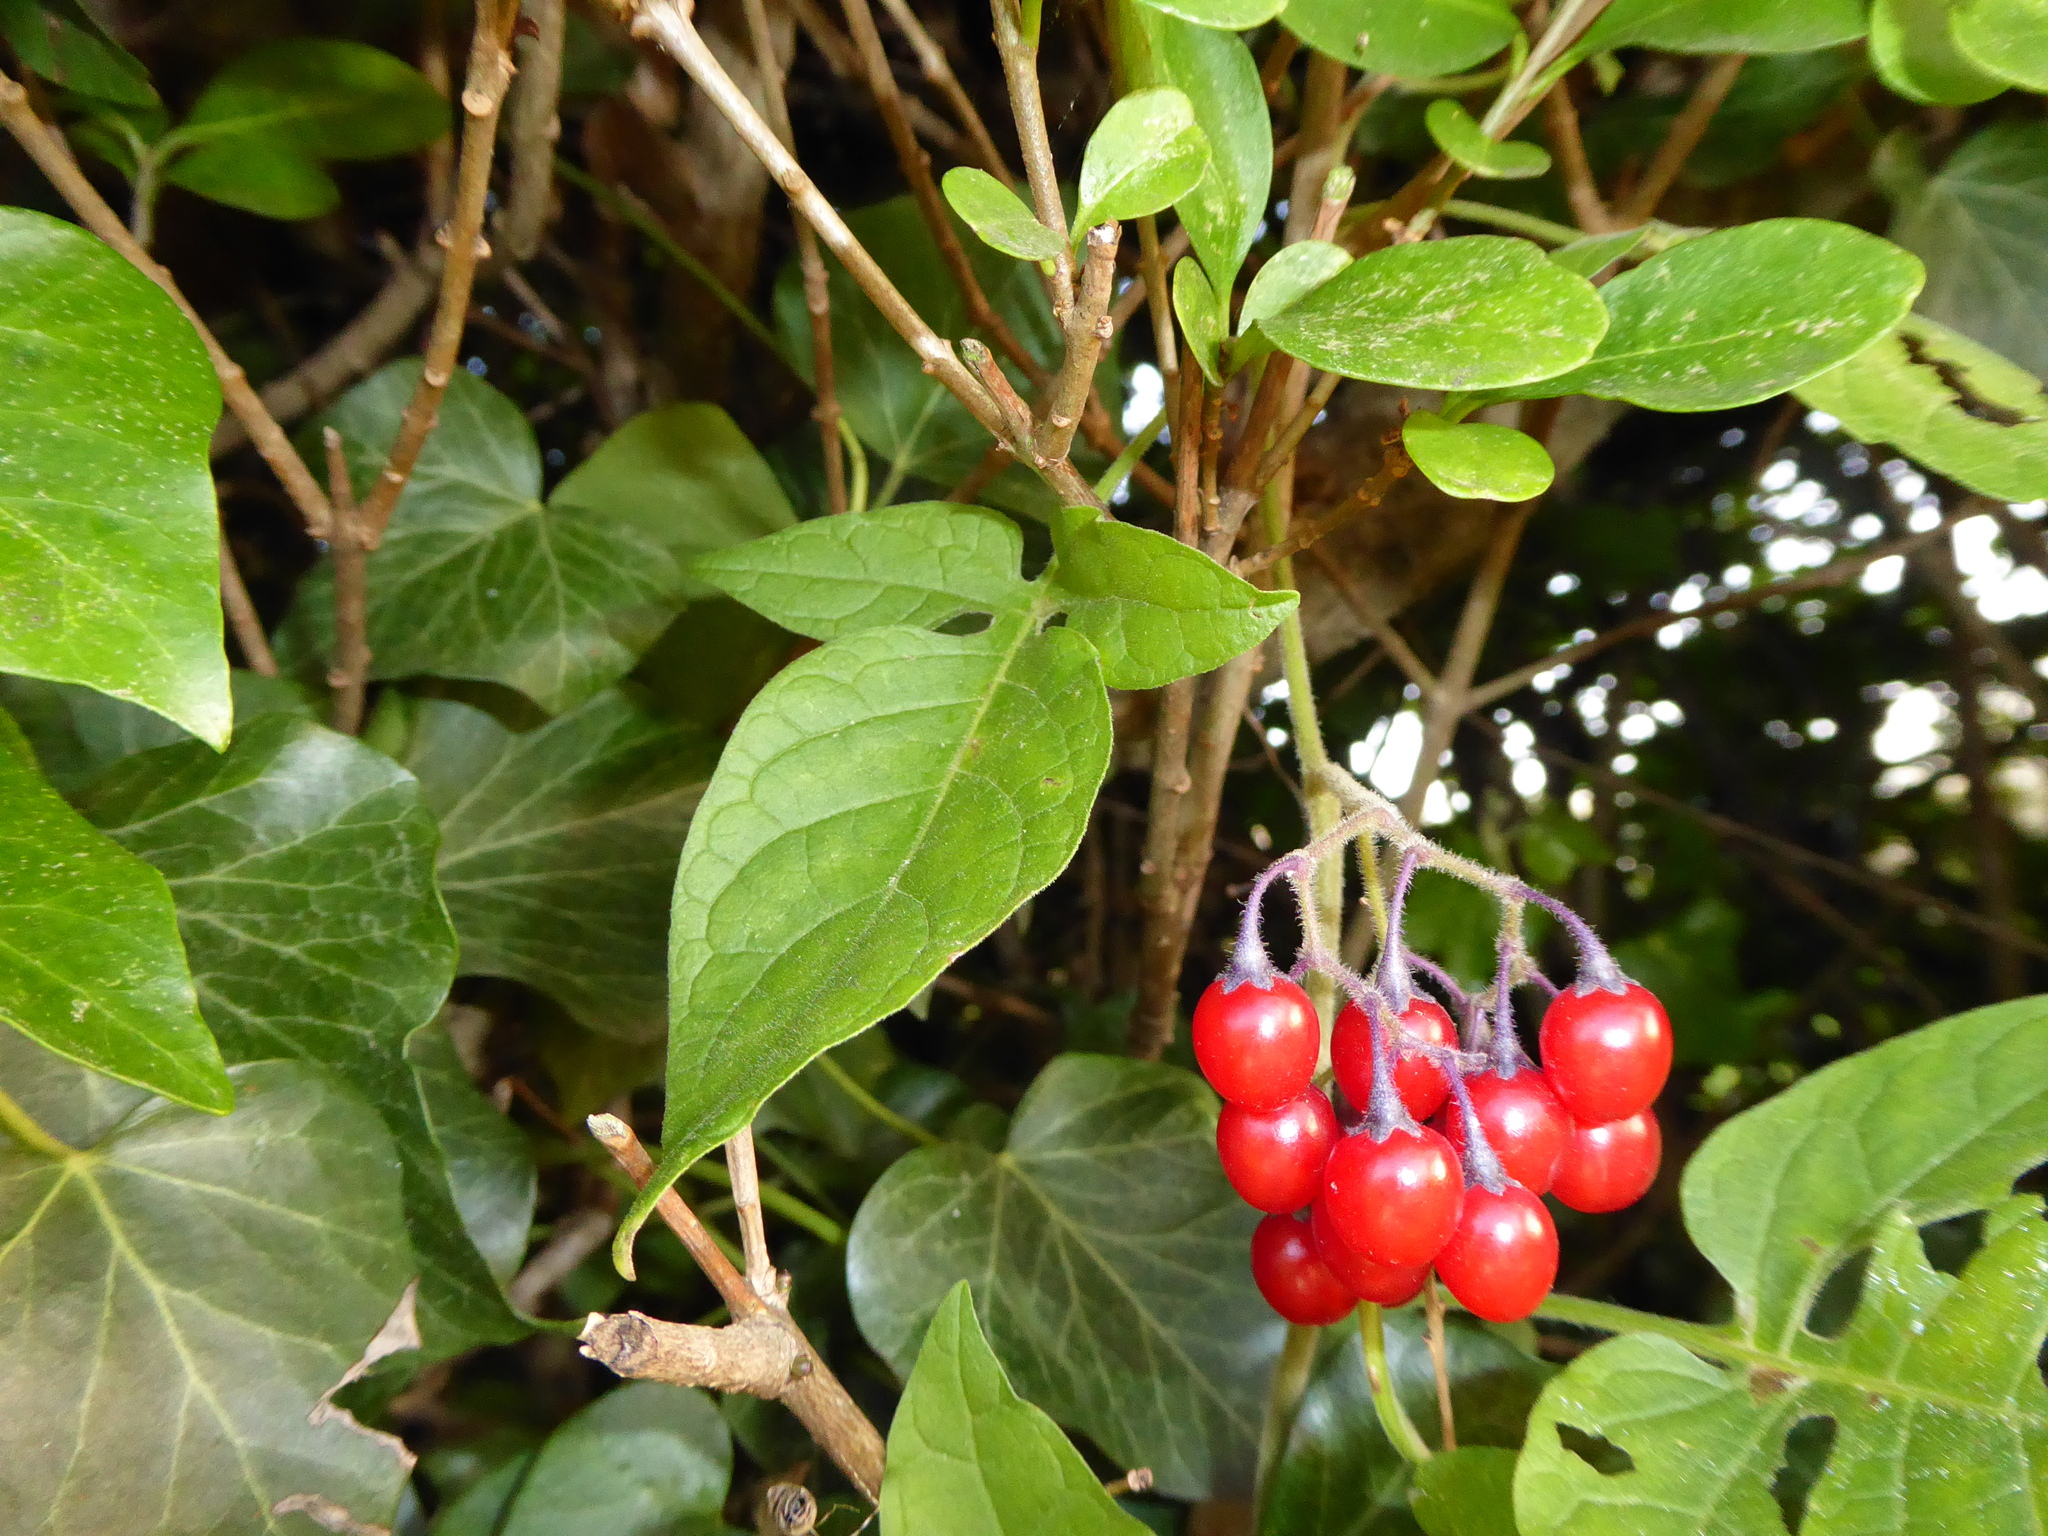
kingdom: Plantae
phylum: Tracheophyta
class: Magnoliopsida
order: Solanales
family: Solanaceae
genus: Solanum
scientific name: Solanum dulcamara
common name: Climbing nightshade
